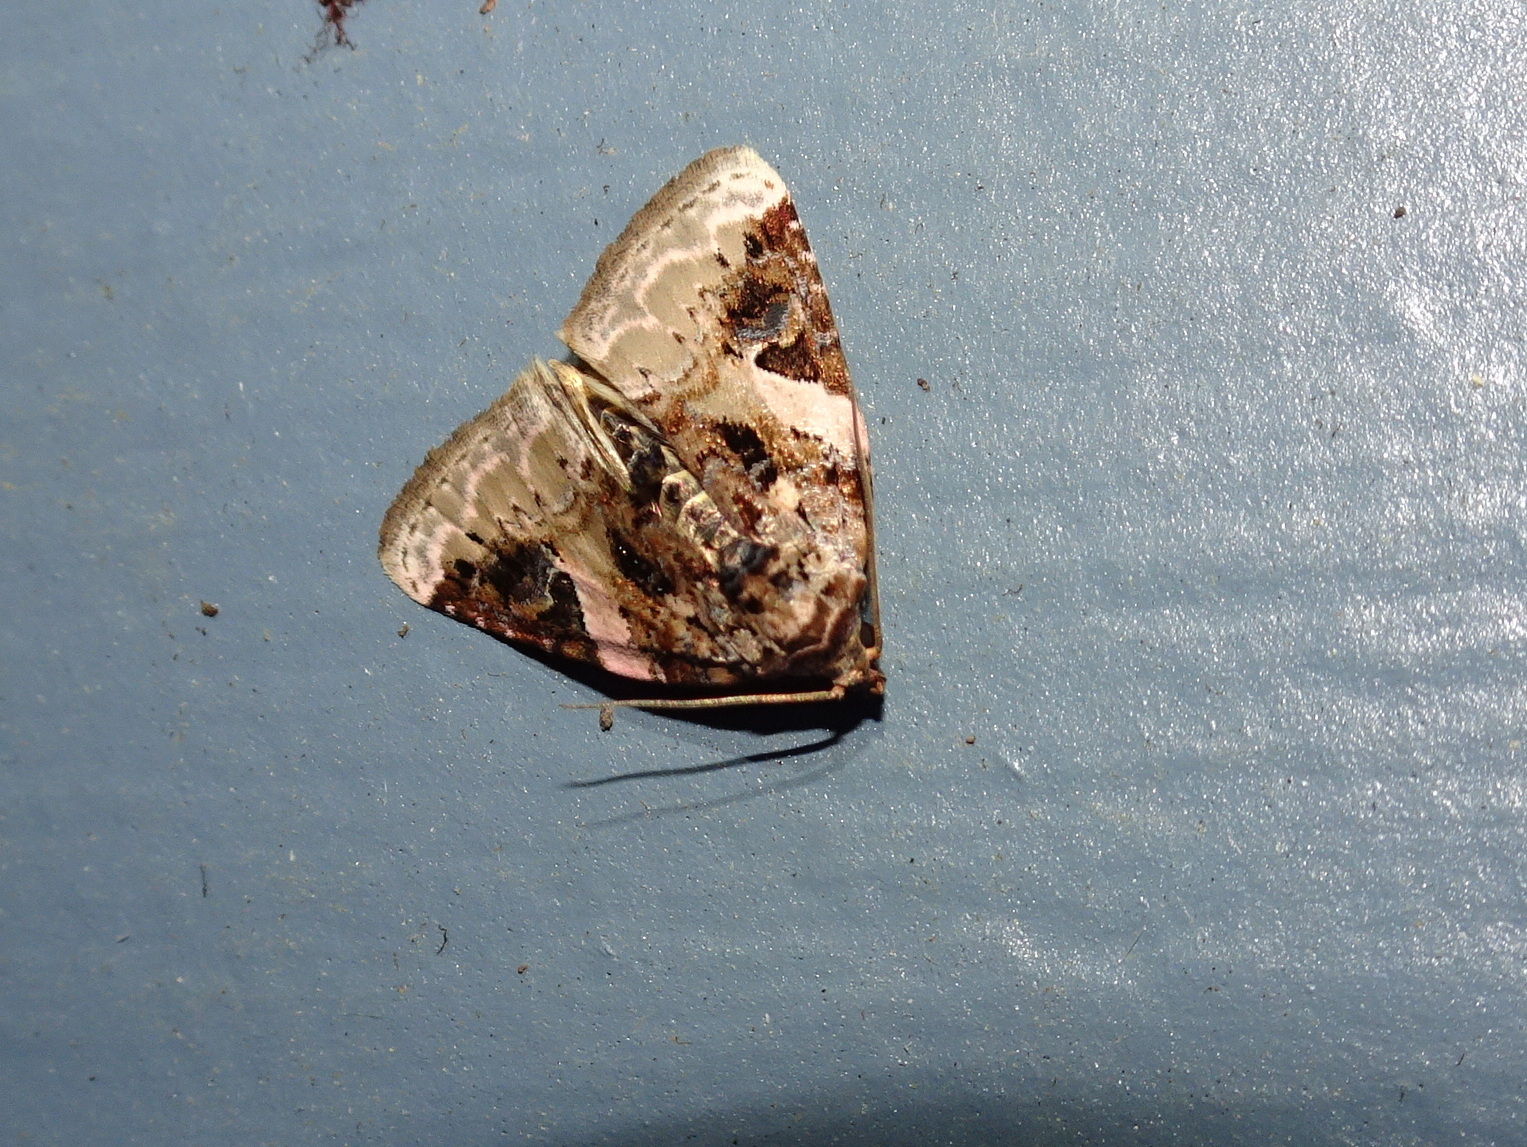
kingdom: Animalia
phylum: Arthropoda
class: Insecta
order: Lepidoptera
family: Noctuidae
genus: Pseudeustrotia
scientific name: Pseudeustrotia carneola
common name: Pink-barred lithacodia moth
